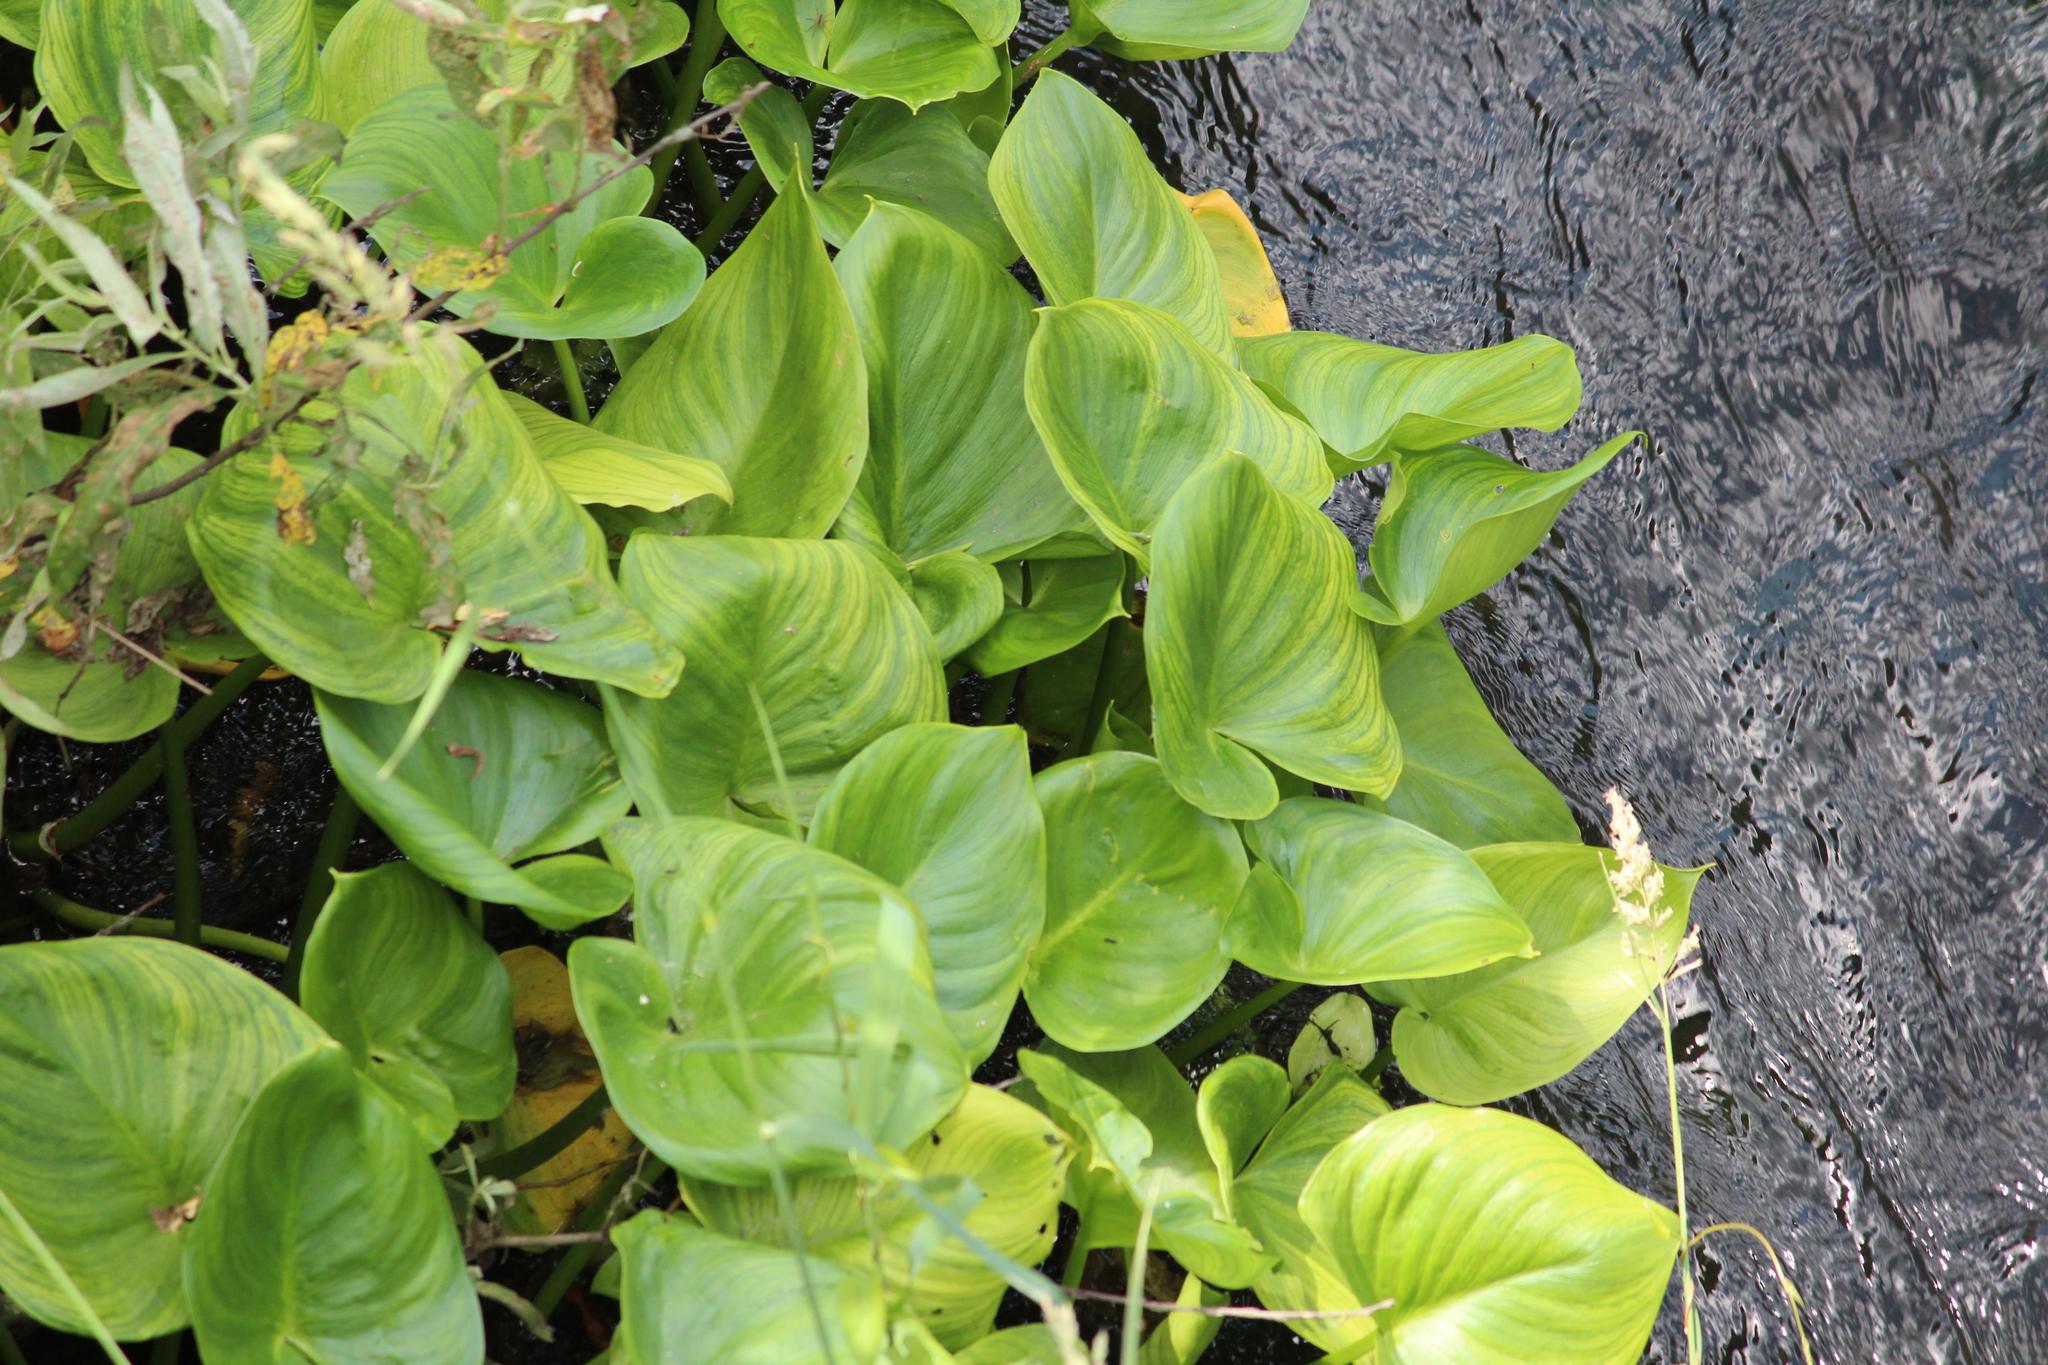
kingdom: Plantae
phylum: Tracheophyta
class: Liliopsida
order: Alismatales
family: Araceae
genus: Calla
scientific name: Calla palustris
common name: Bog arum
